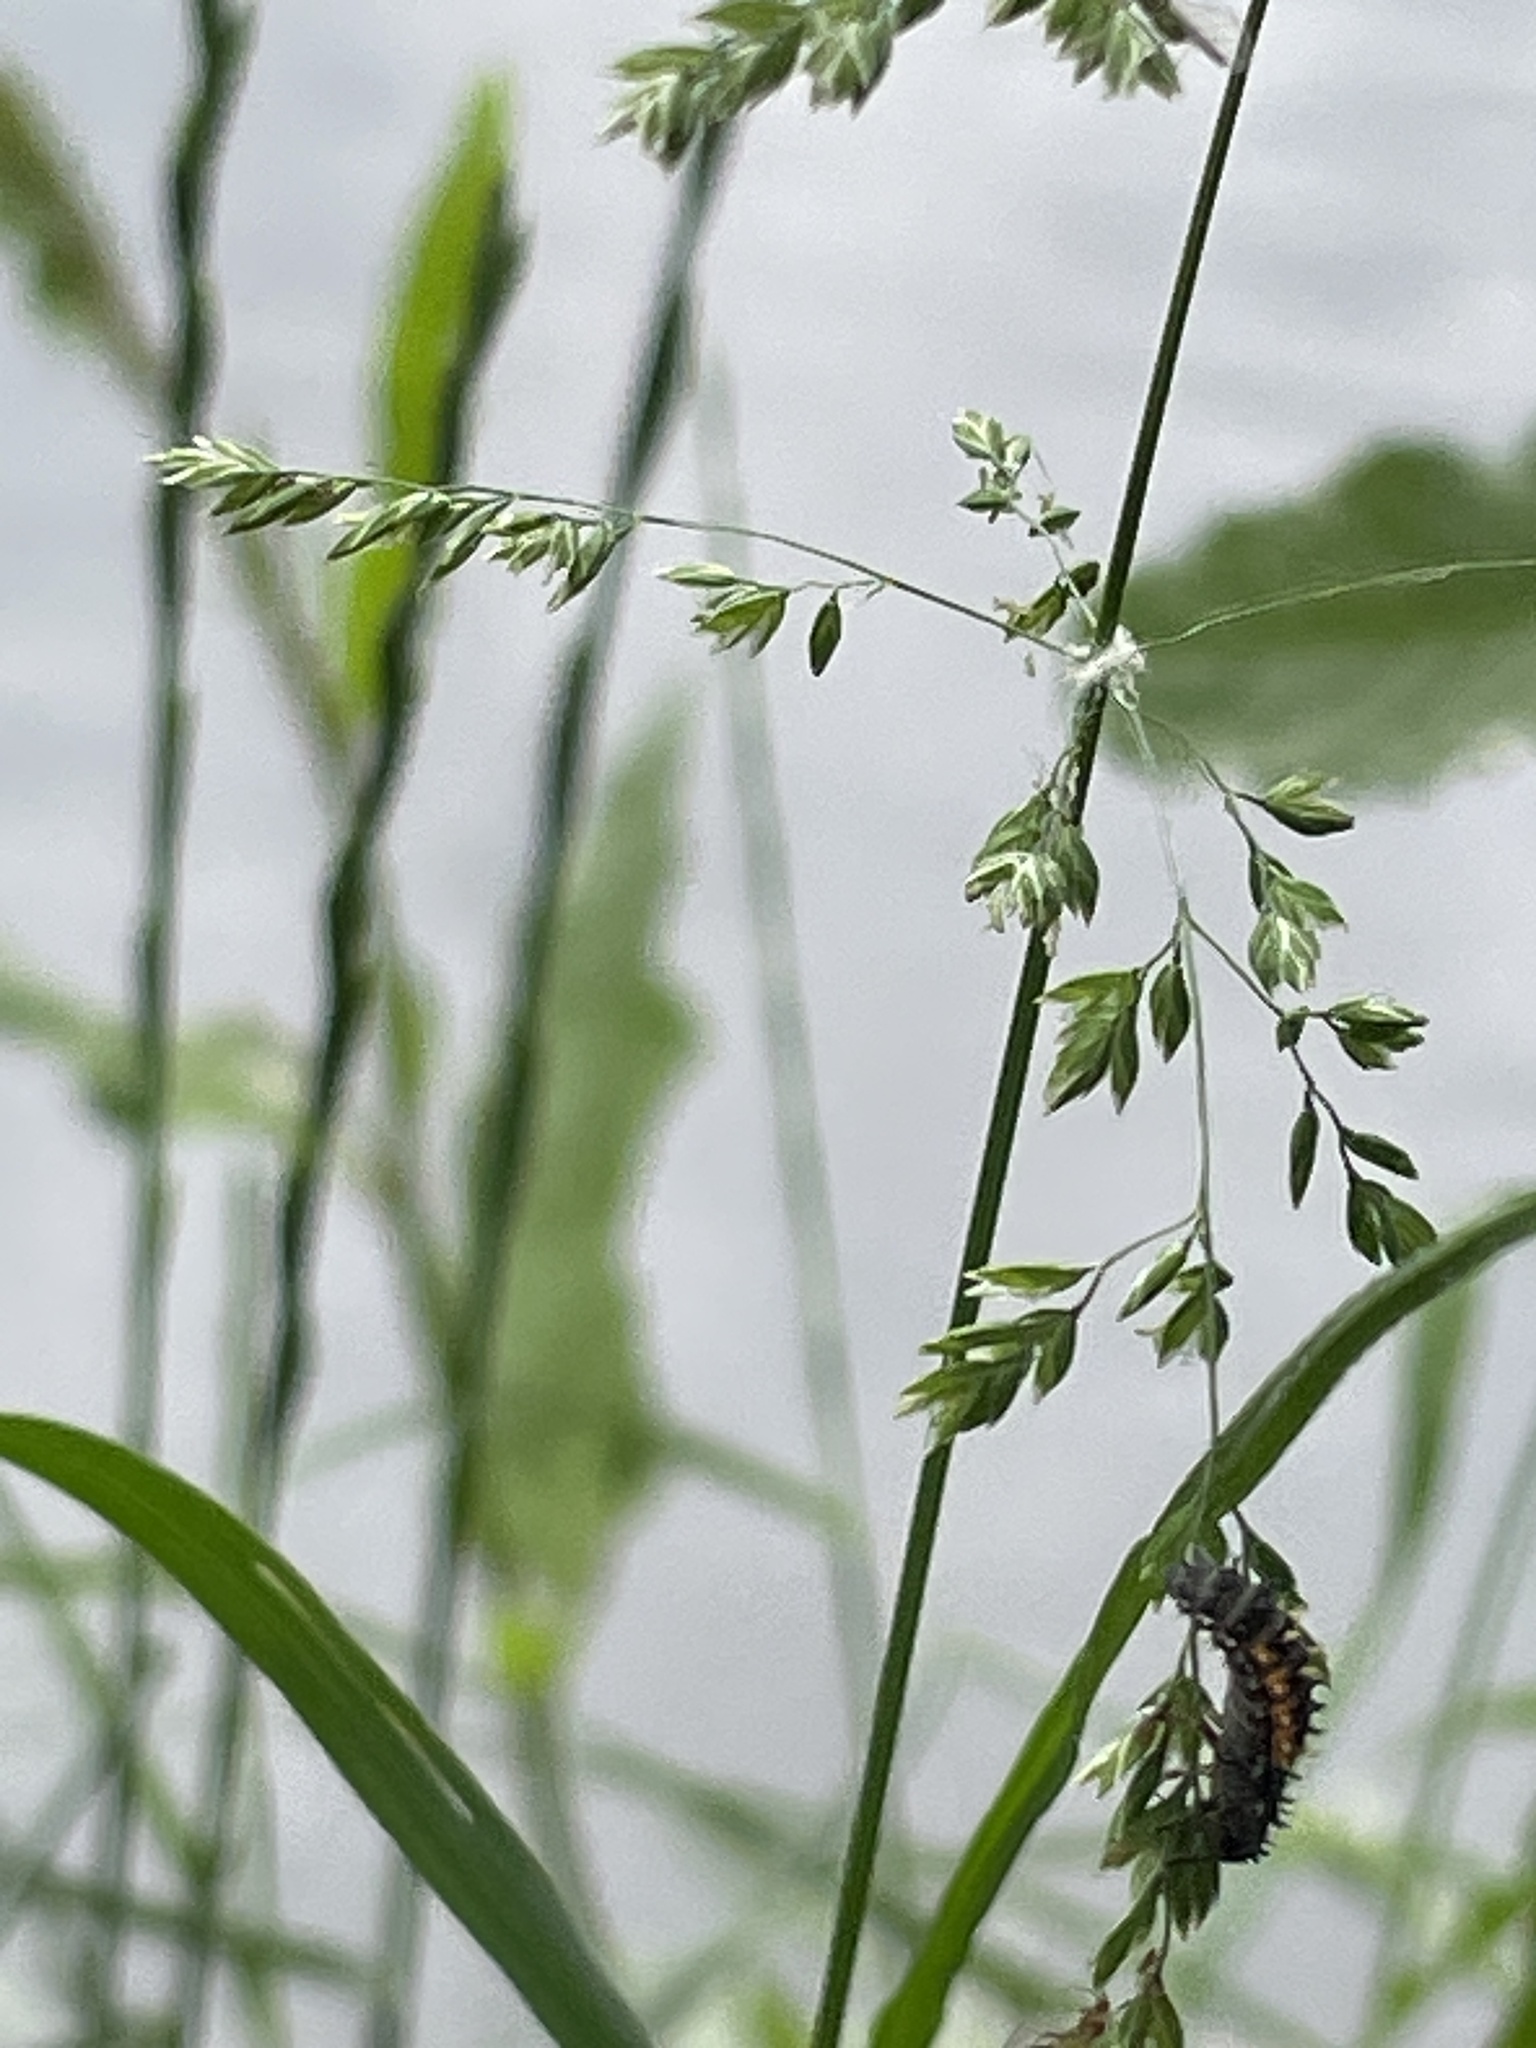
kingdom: Animalia
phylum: Arthropoda
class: Insecta
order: Coleoptera
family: Coccinellidae
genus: Harmonia
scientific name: Harmonia axyridis
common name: Harlequin ladybird
